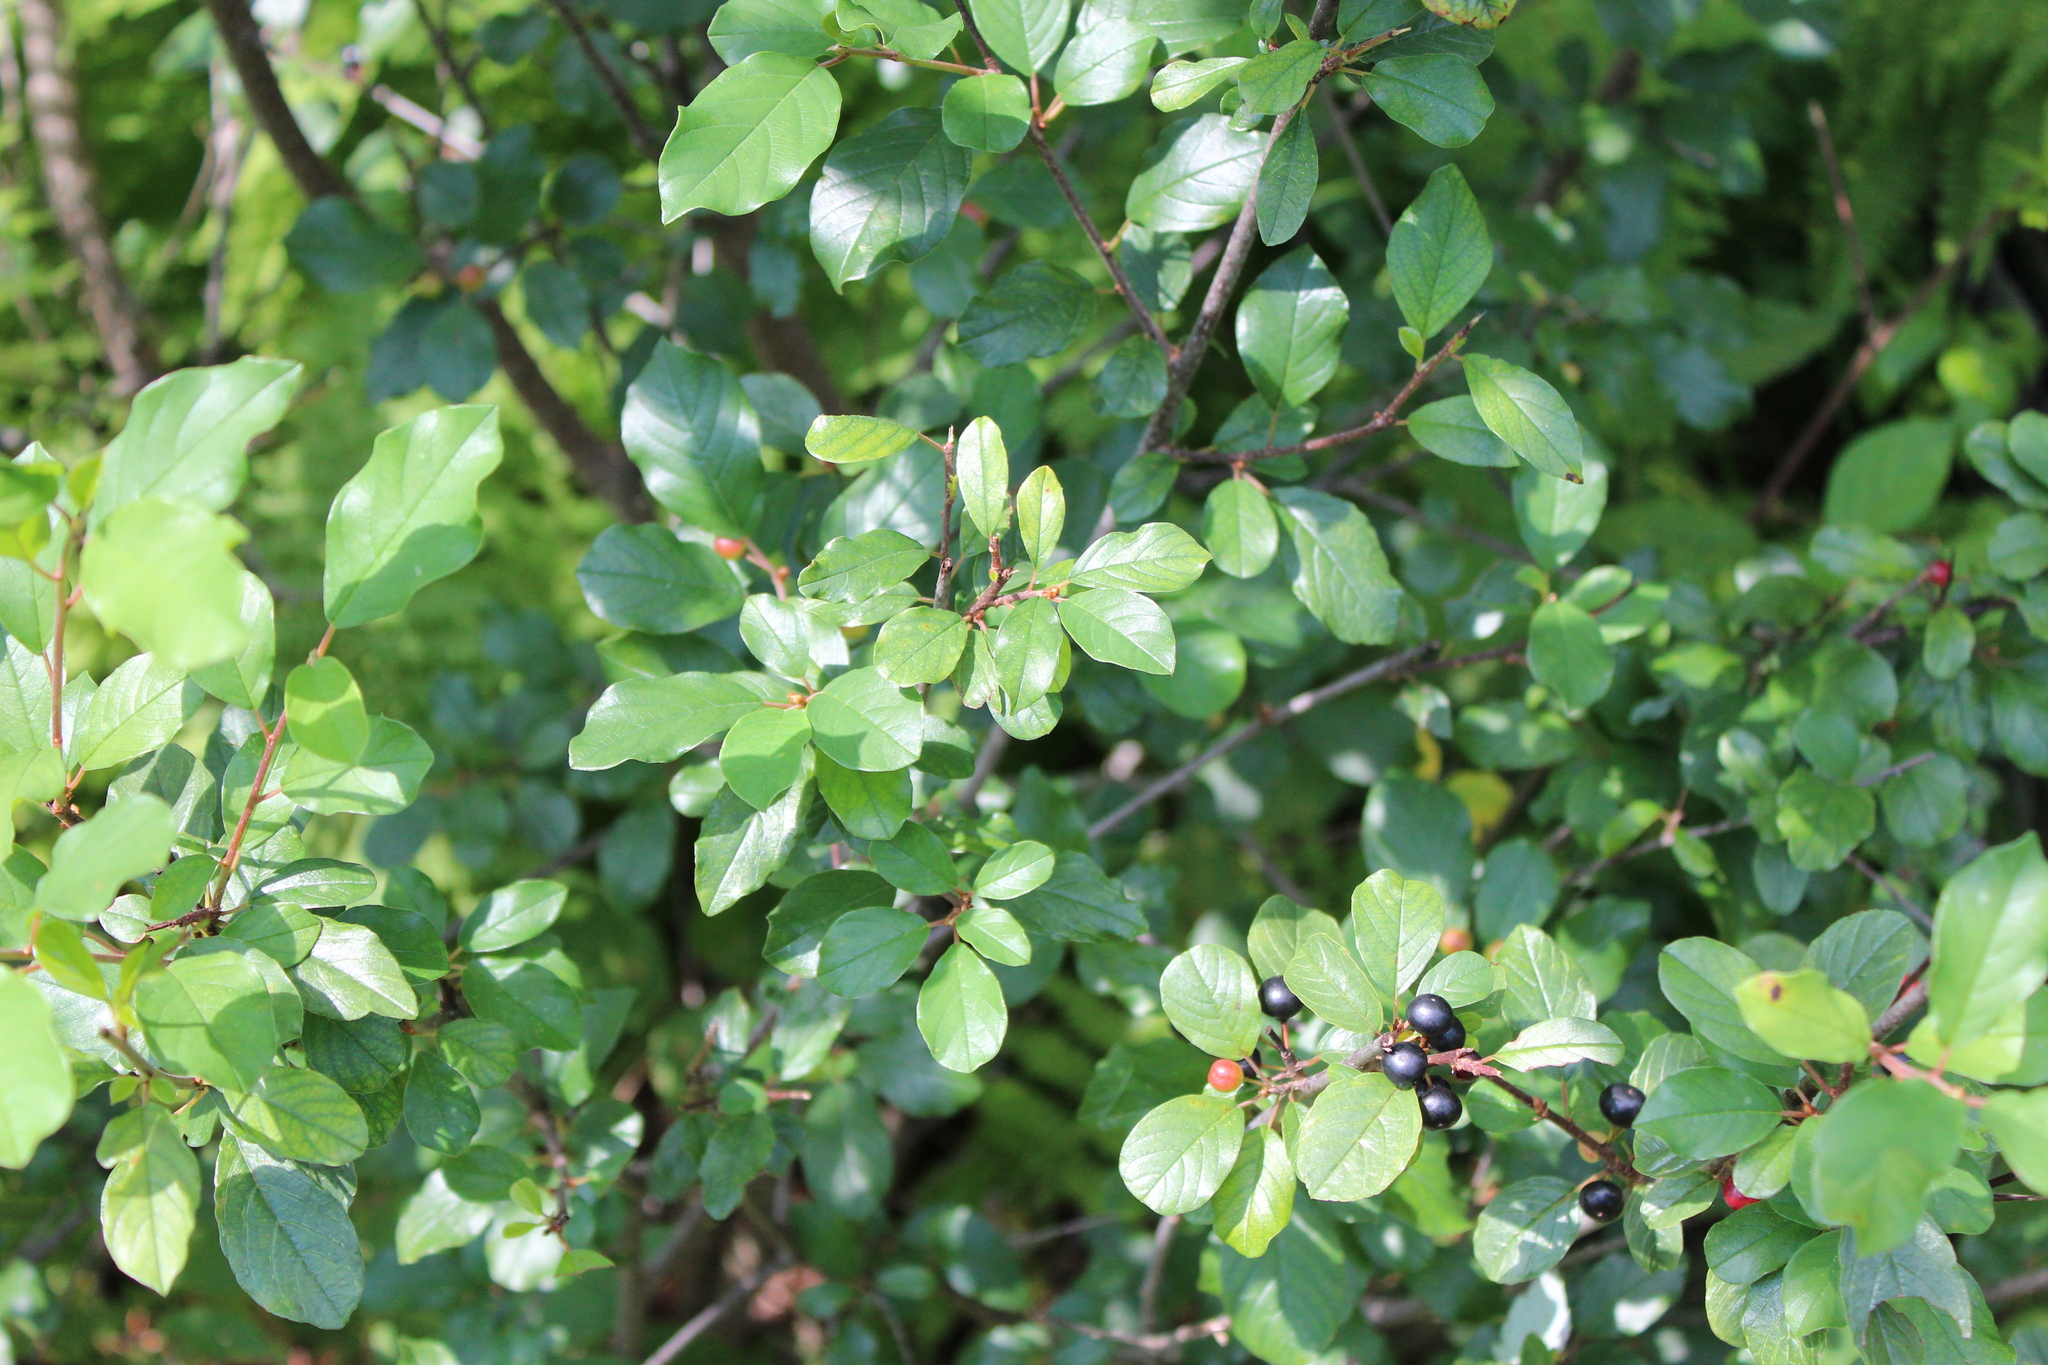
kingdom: Plantae
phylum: Tracheophyta
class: Magnoliopsida
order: Rosales
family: Rhamnaceae
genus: Frangula
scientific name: Frangula alnus
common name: Alder buckthorn
